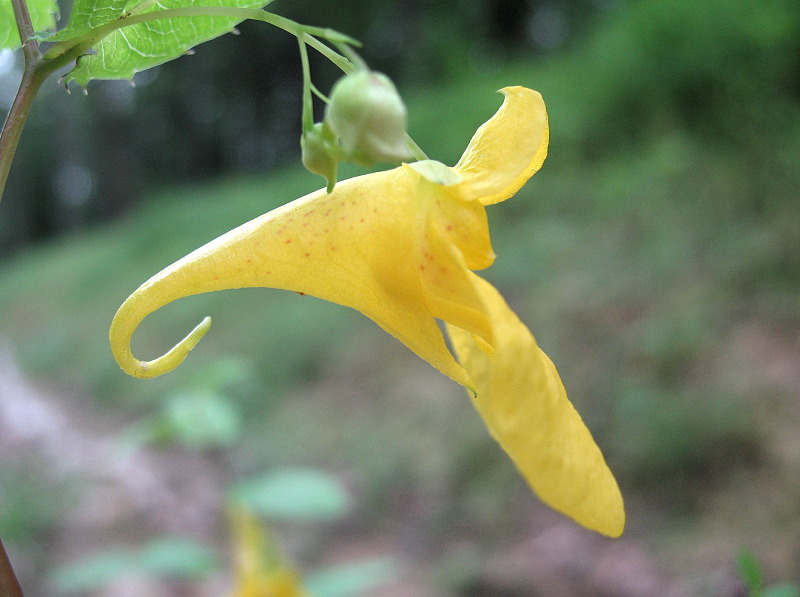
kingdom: Plantae
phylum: Tracheophyta
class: Magnoliopsida
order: Ericales
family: Balsaminaceae
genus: Impatiens
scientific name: Impatiens noli-tangere
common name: Touch-me-not balsam
